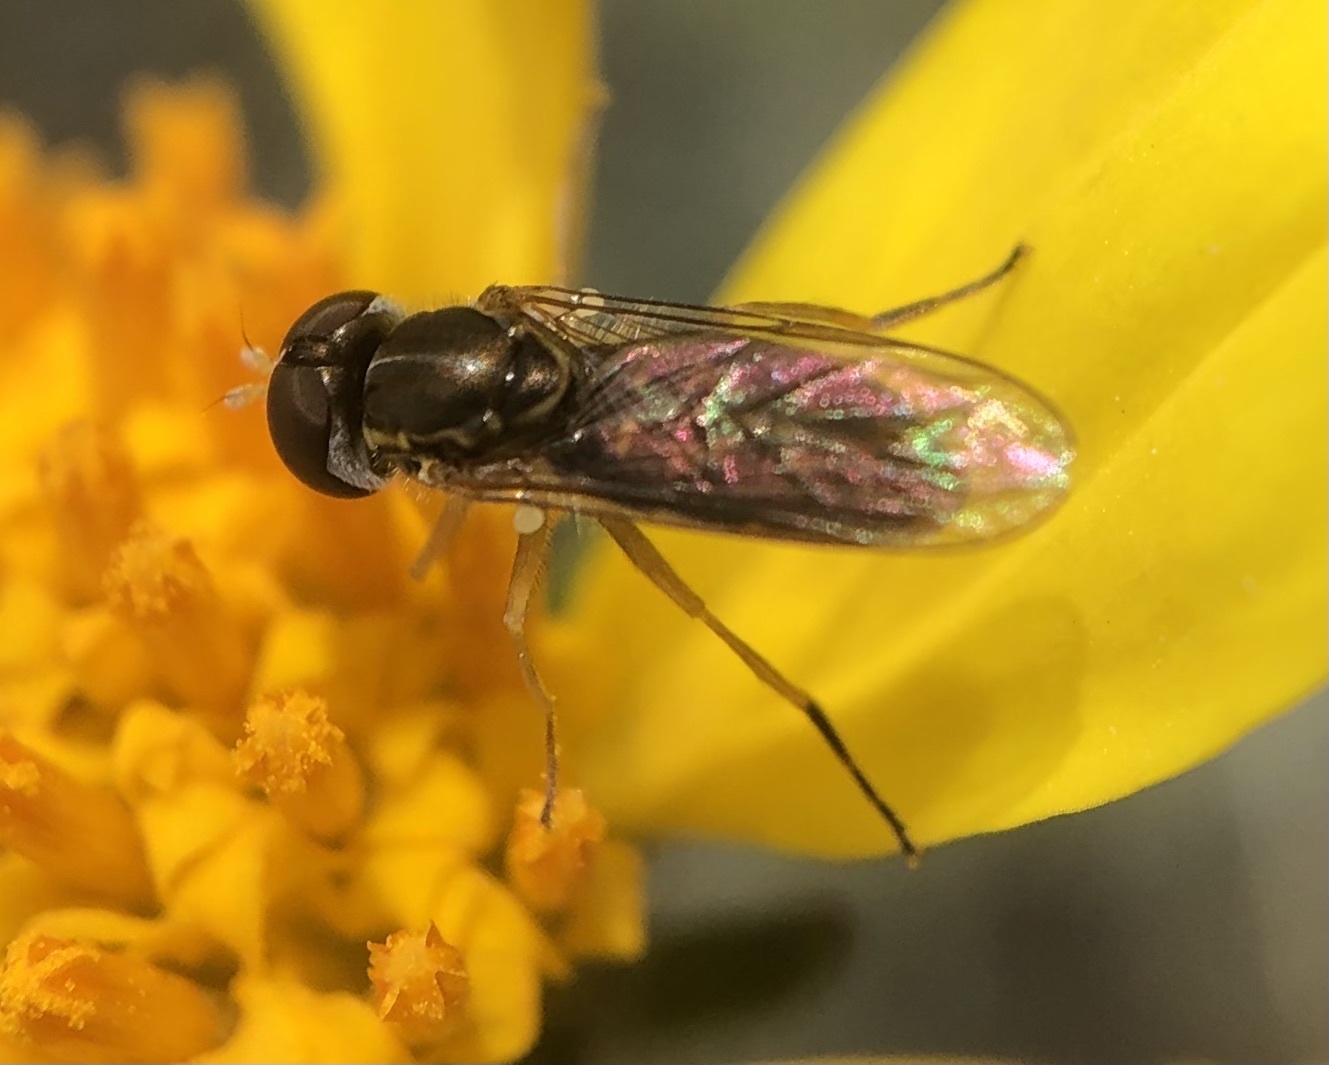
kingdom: Animalia
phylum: Arthropoda
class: Insecta
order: Diptera
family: Syrphidae
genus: Toxomerus
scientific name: Toxomerus marginatus
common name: Syrphid fly
